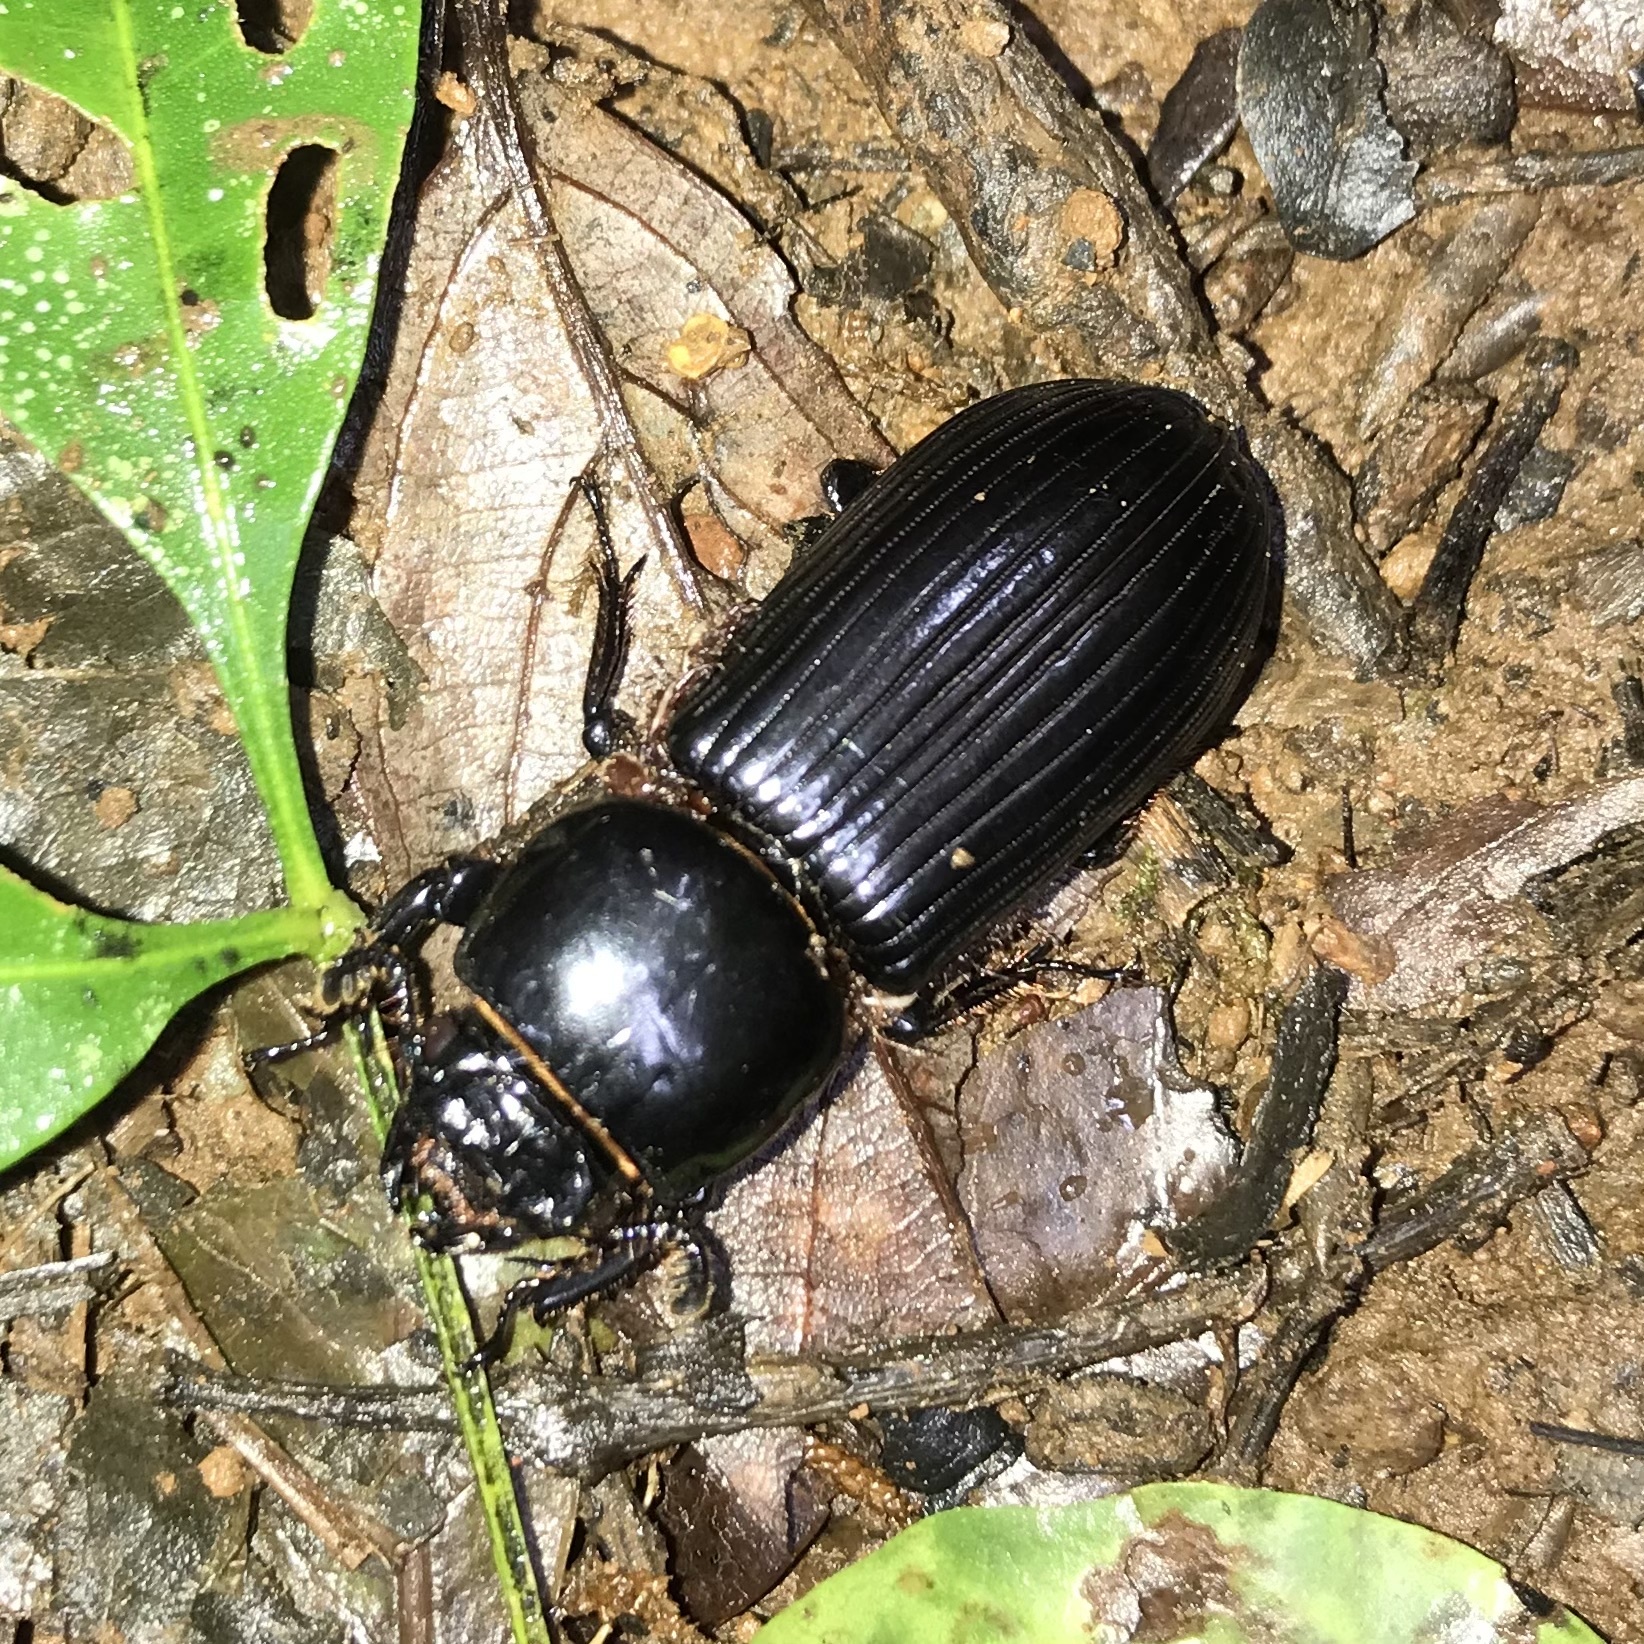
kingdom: Animalia
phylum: Arthropoda
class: Insecta
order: Coleoptera
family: Passalidae
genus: Mastachilus
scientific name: Mastachilus quaestionis
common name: Giant passalid beetle
